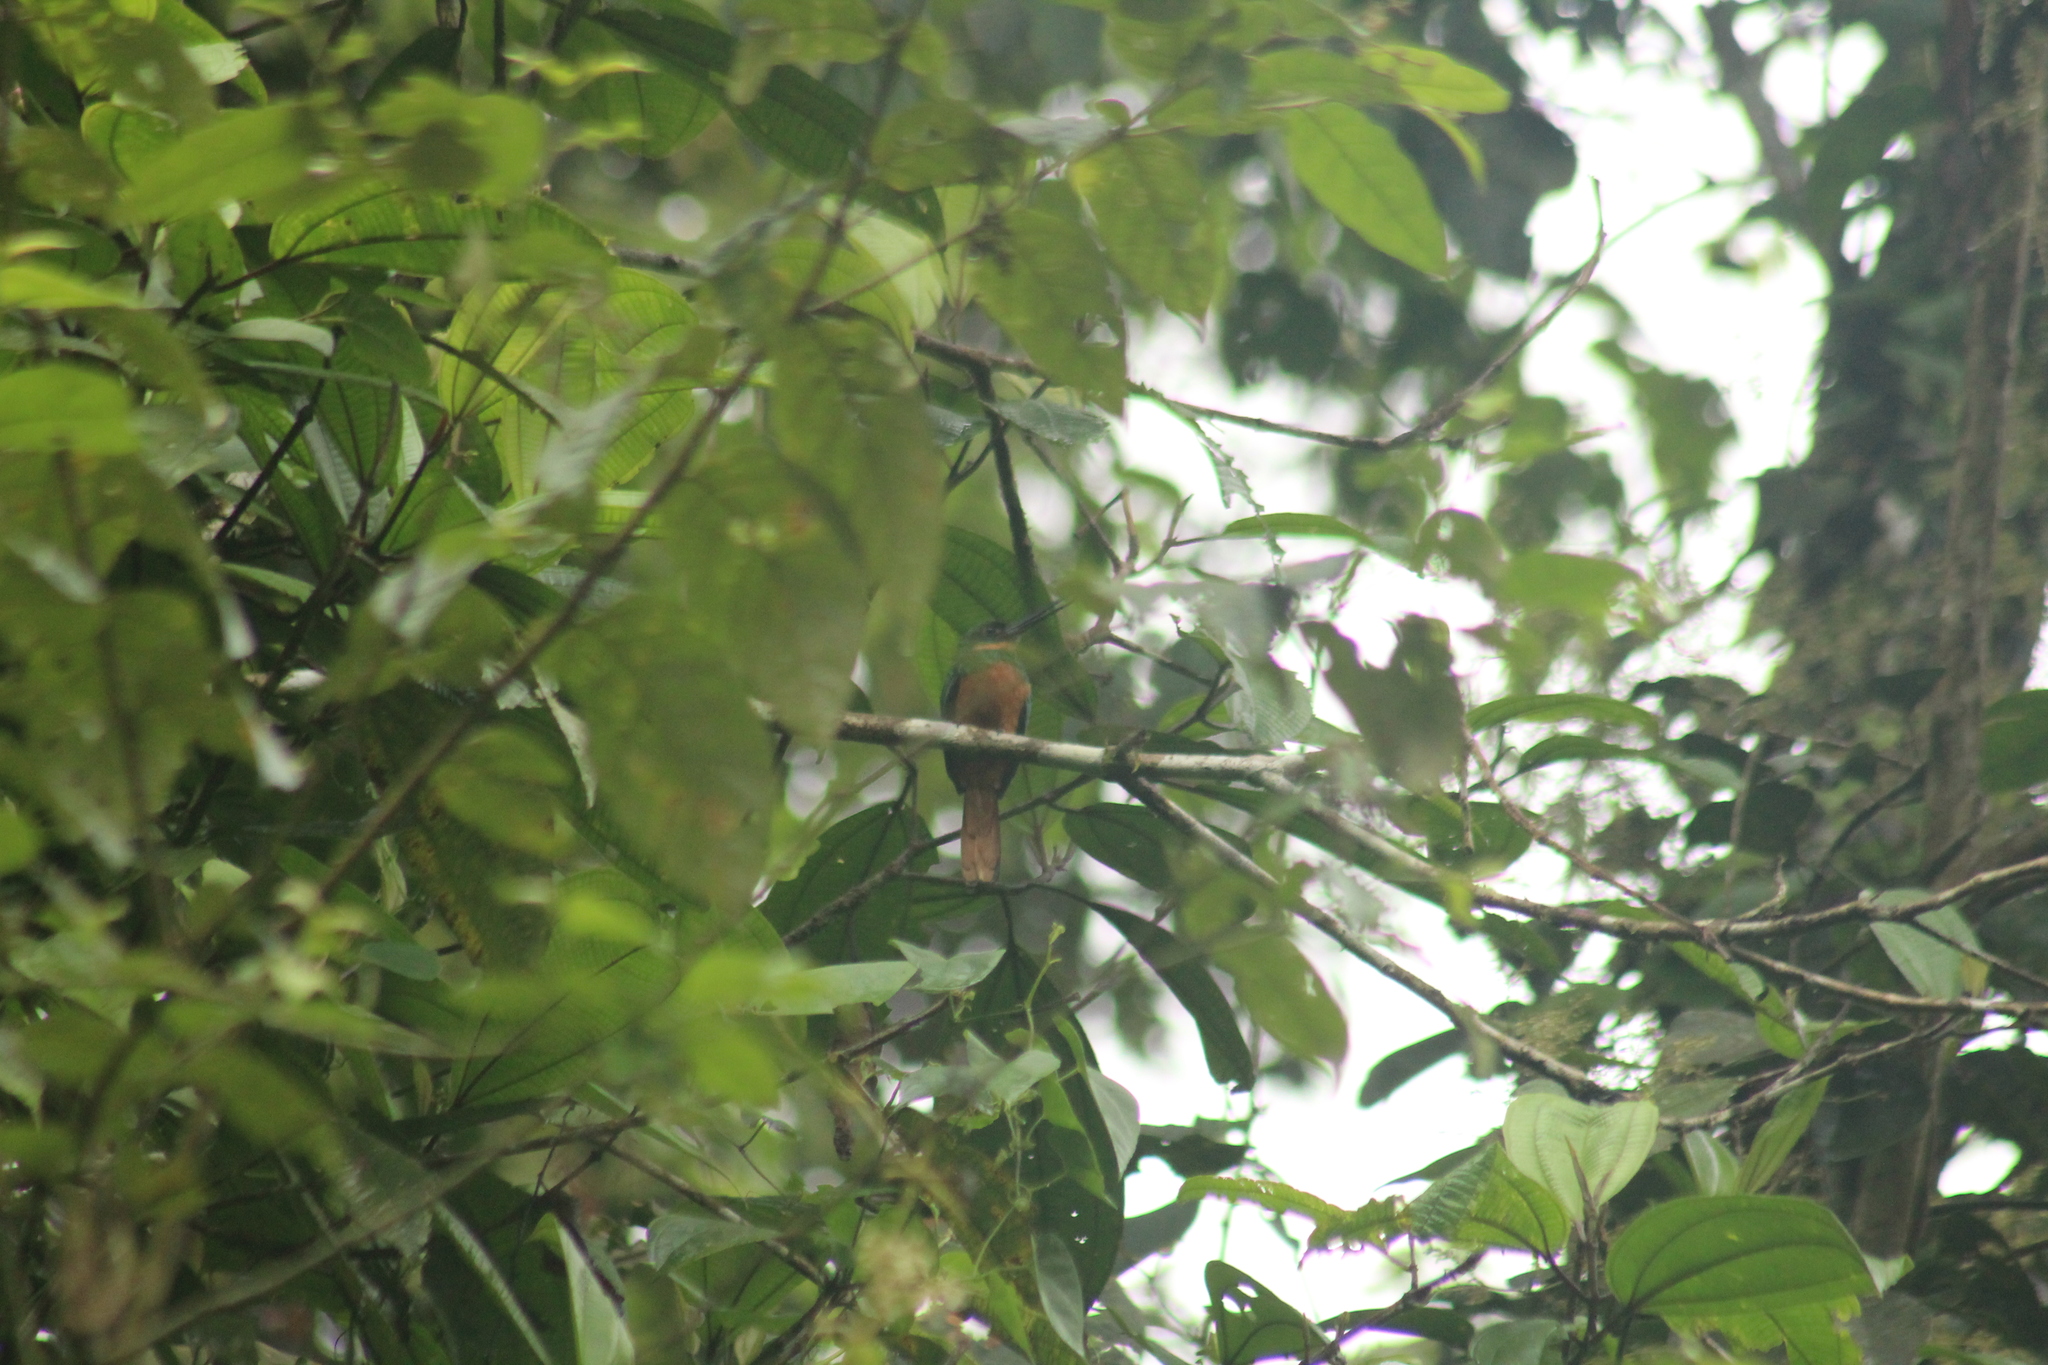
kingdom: Animalia
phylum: Chordata
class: Aves
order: Piciformes
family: Galbulidae
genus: Galbula
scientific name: Galbula ruficauda
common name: Rufous-tailed jacamar
